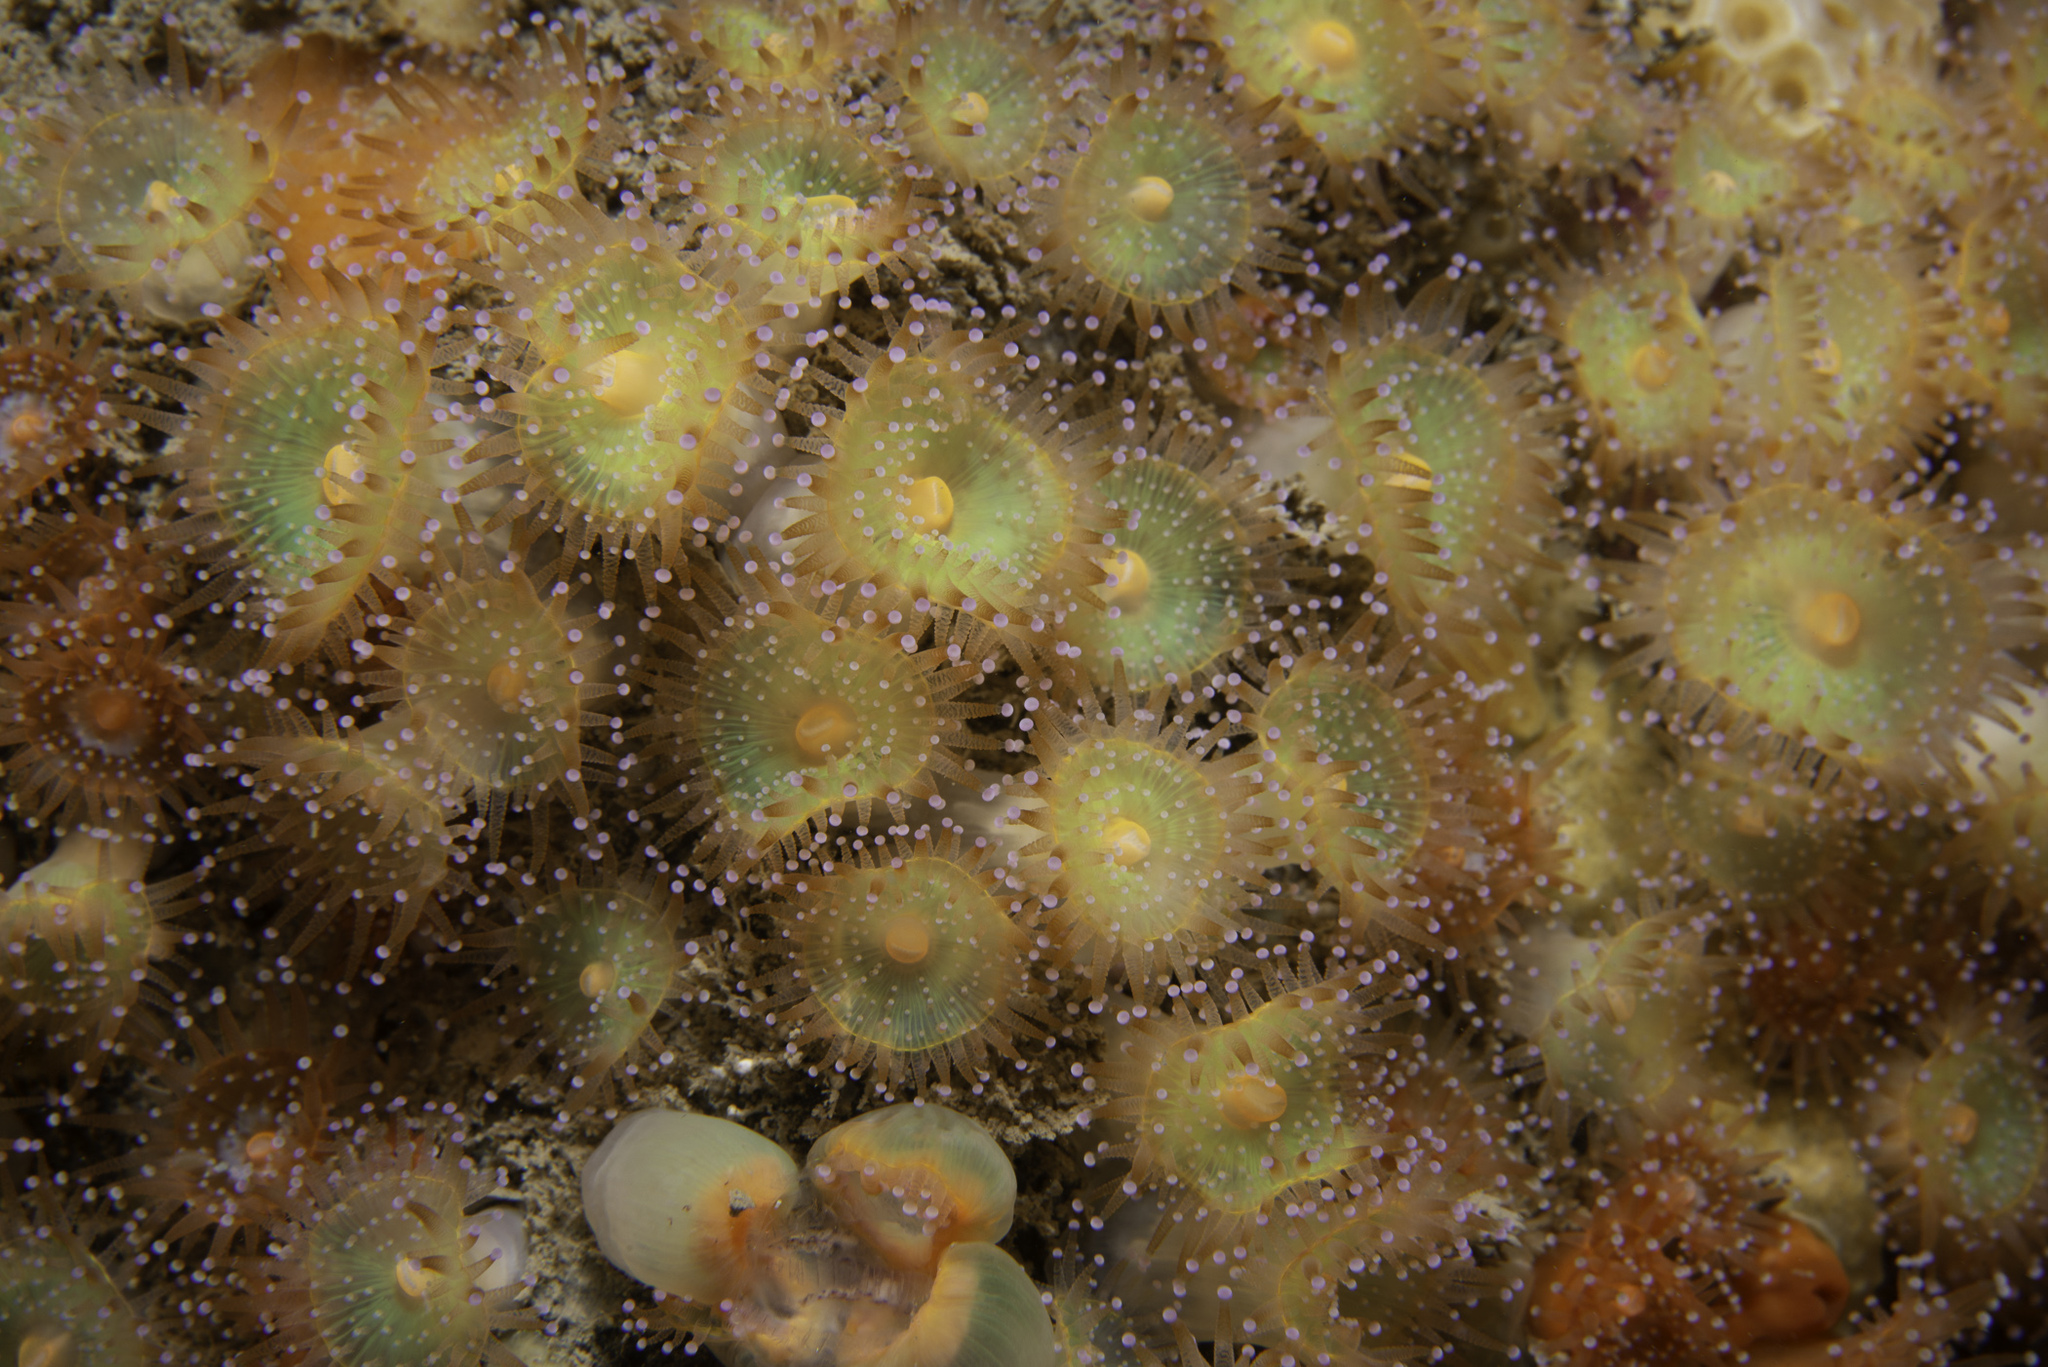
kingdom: Animalia
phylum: Cnidaria
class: Anthozoa
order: Corallimorpharia
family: Corallimorphidae
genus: Corynactis
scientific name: Corynactis viridis
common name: Jewel anemone
